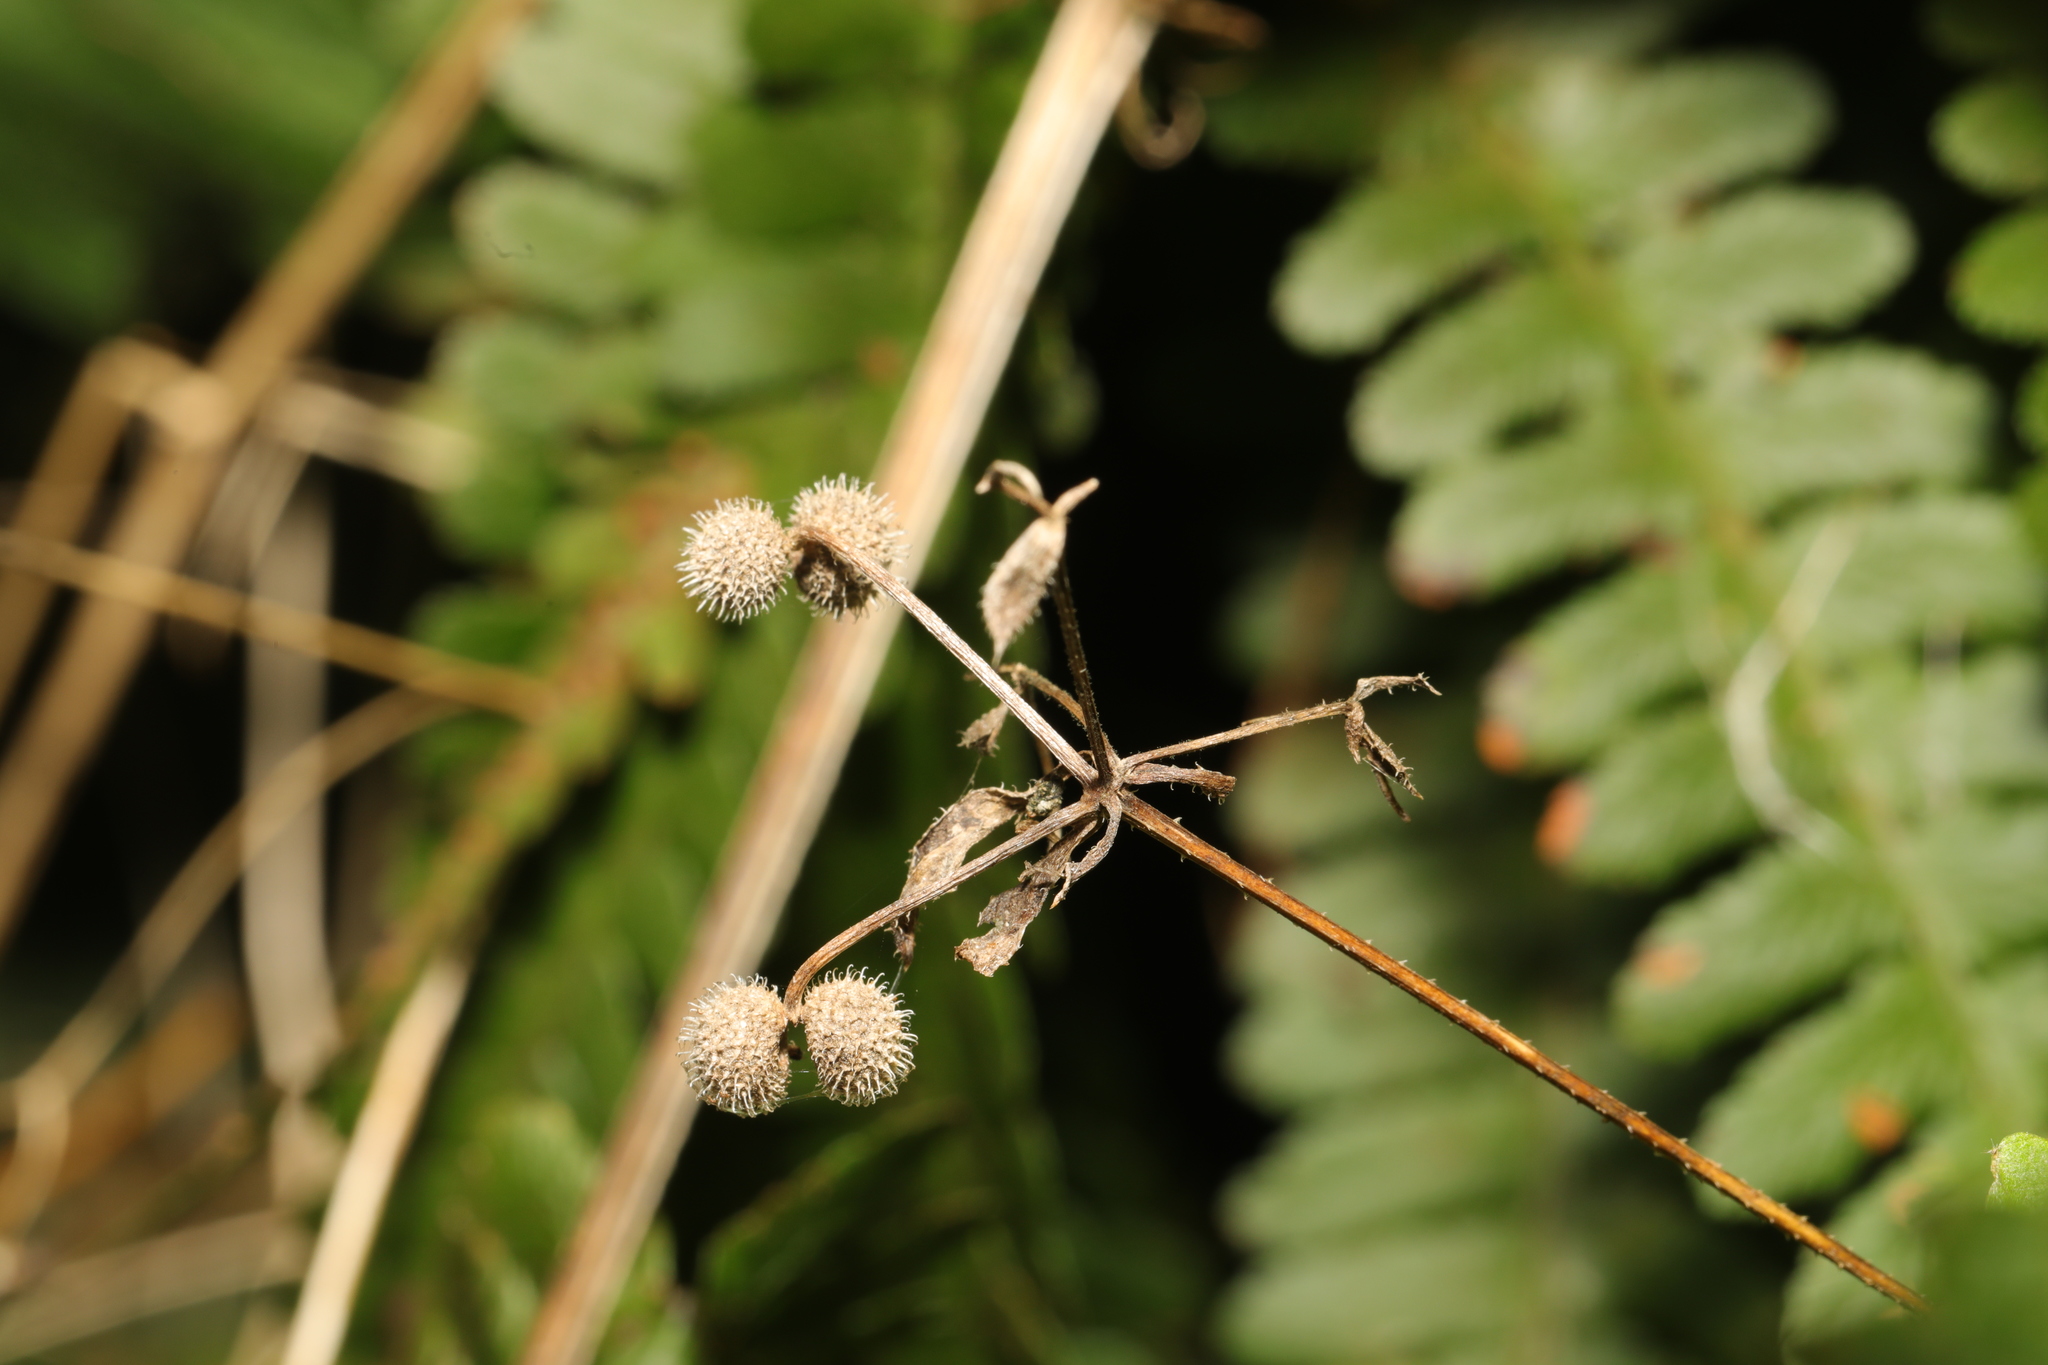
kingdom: Plantae
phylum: Tracheophyta
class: Magnoliopsida
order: Gentianales
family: Rubiaceae
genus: Galium
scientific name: Galium aparine
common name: Cleavers
